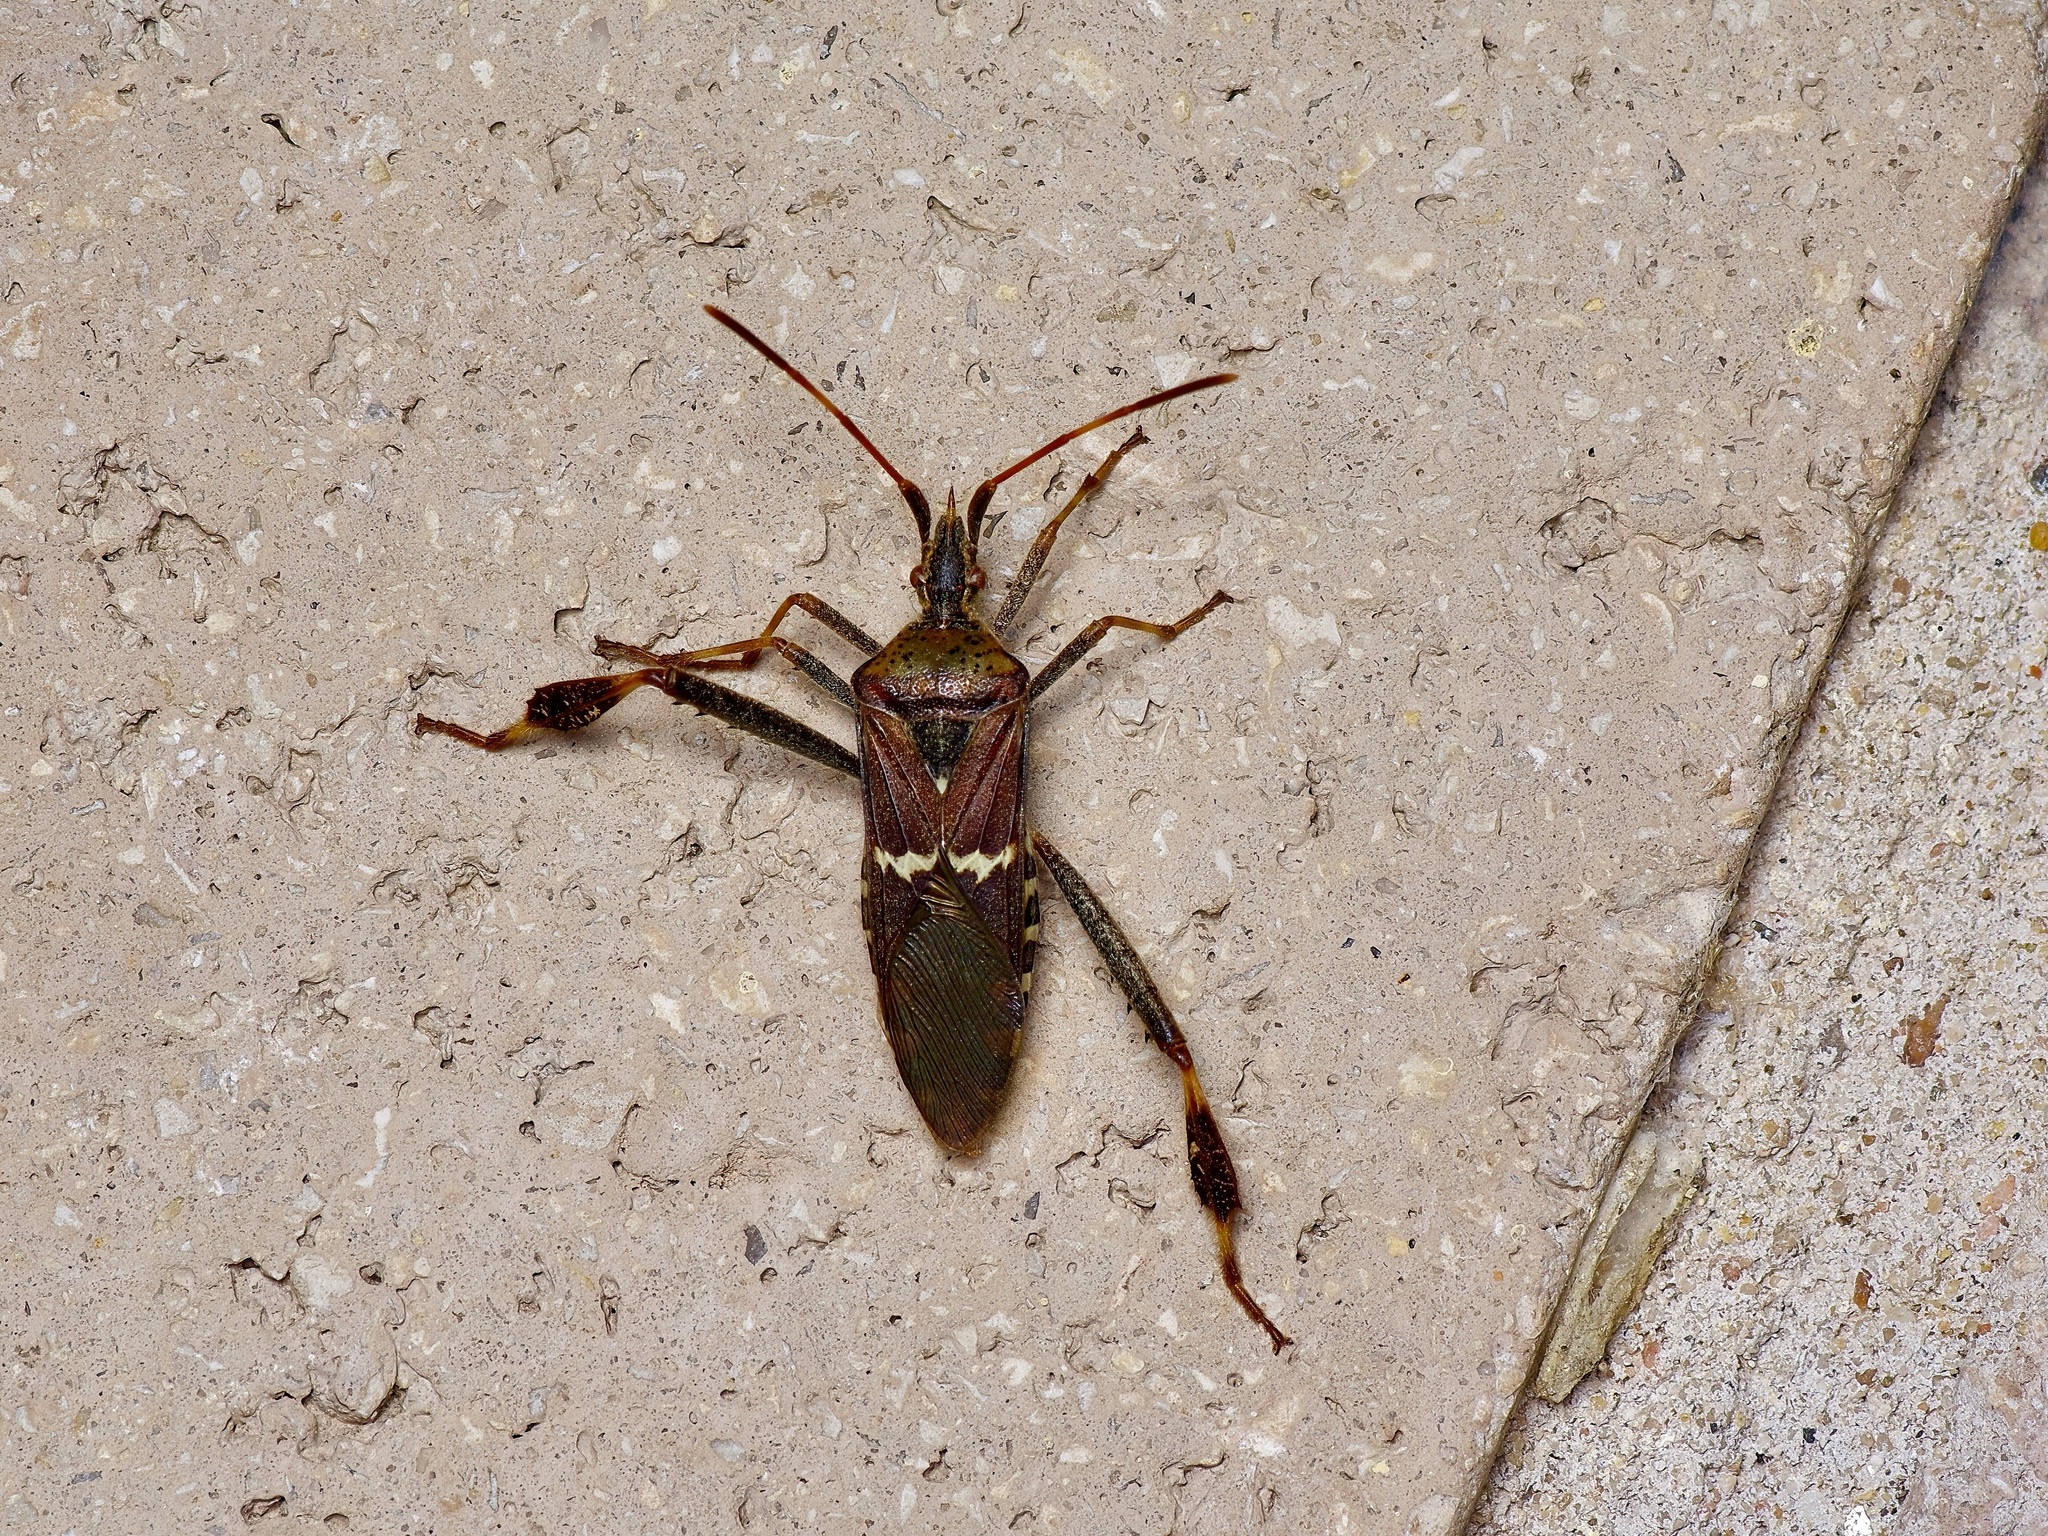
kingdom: Animalia
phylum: Arthropoda
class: Insecta
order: Hemiptera
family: Coreidae
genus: Leptoglossus
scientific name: Leptoglossus clypealis
